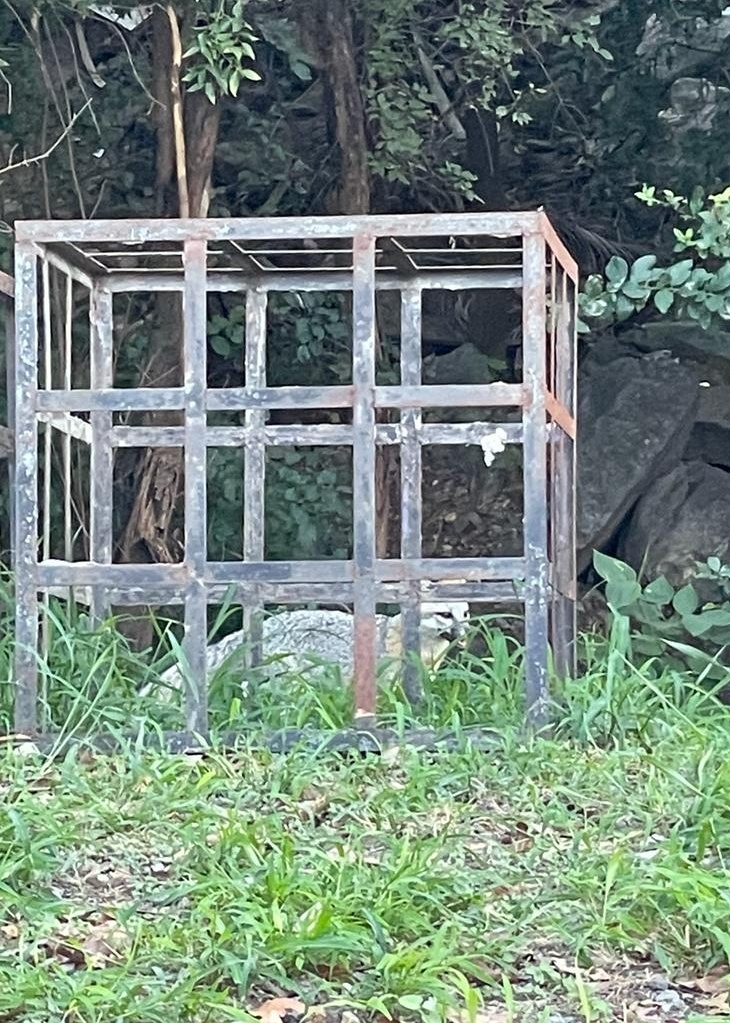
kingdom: Animalia
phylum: Chordata
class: Mammalia
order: Carnivora
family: Canidae
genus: Urocyon
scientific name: Urocyon cinereoargenteus
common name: Gray fox
